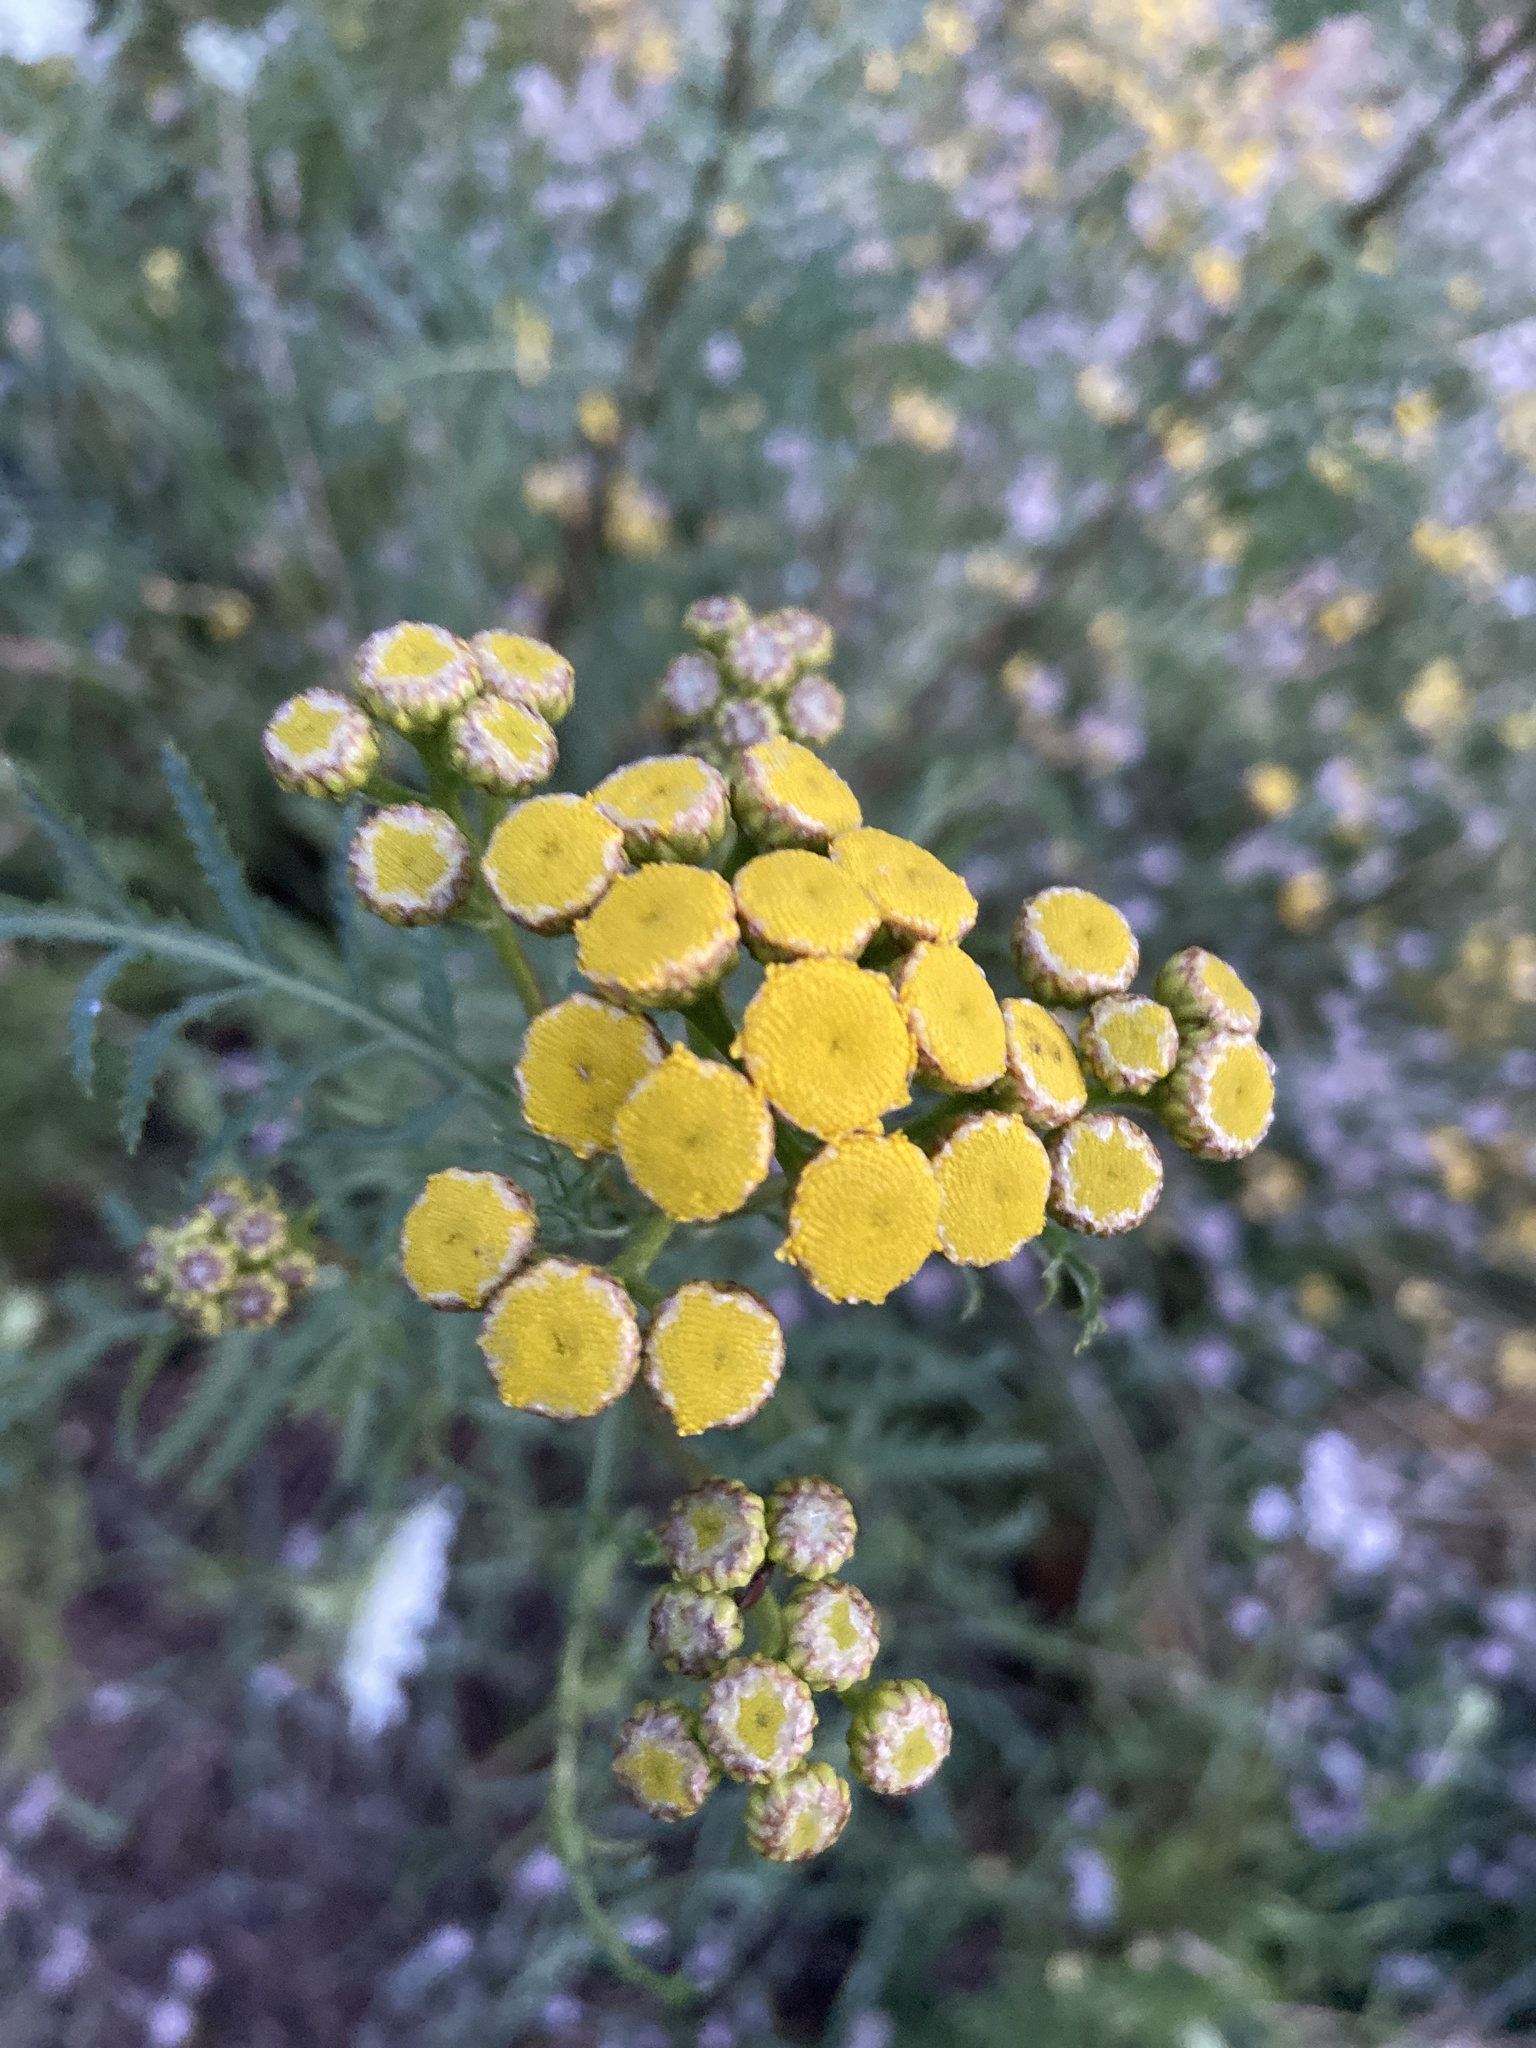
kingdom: Plantae
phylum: Tracheophyta
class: Magnoliopsida
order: Asterales
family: Asteraceae
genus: Tanacetum
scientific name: Tanacetum vulgare
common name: Common tansy
